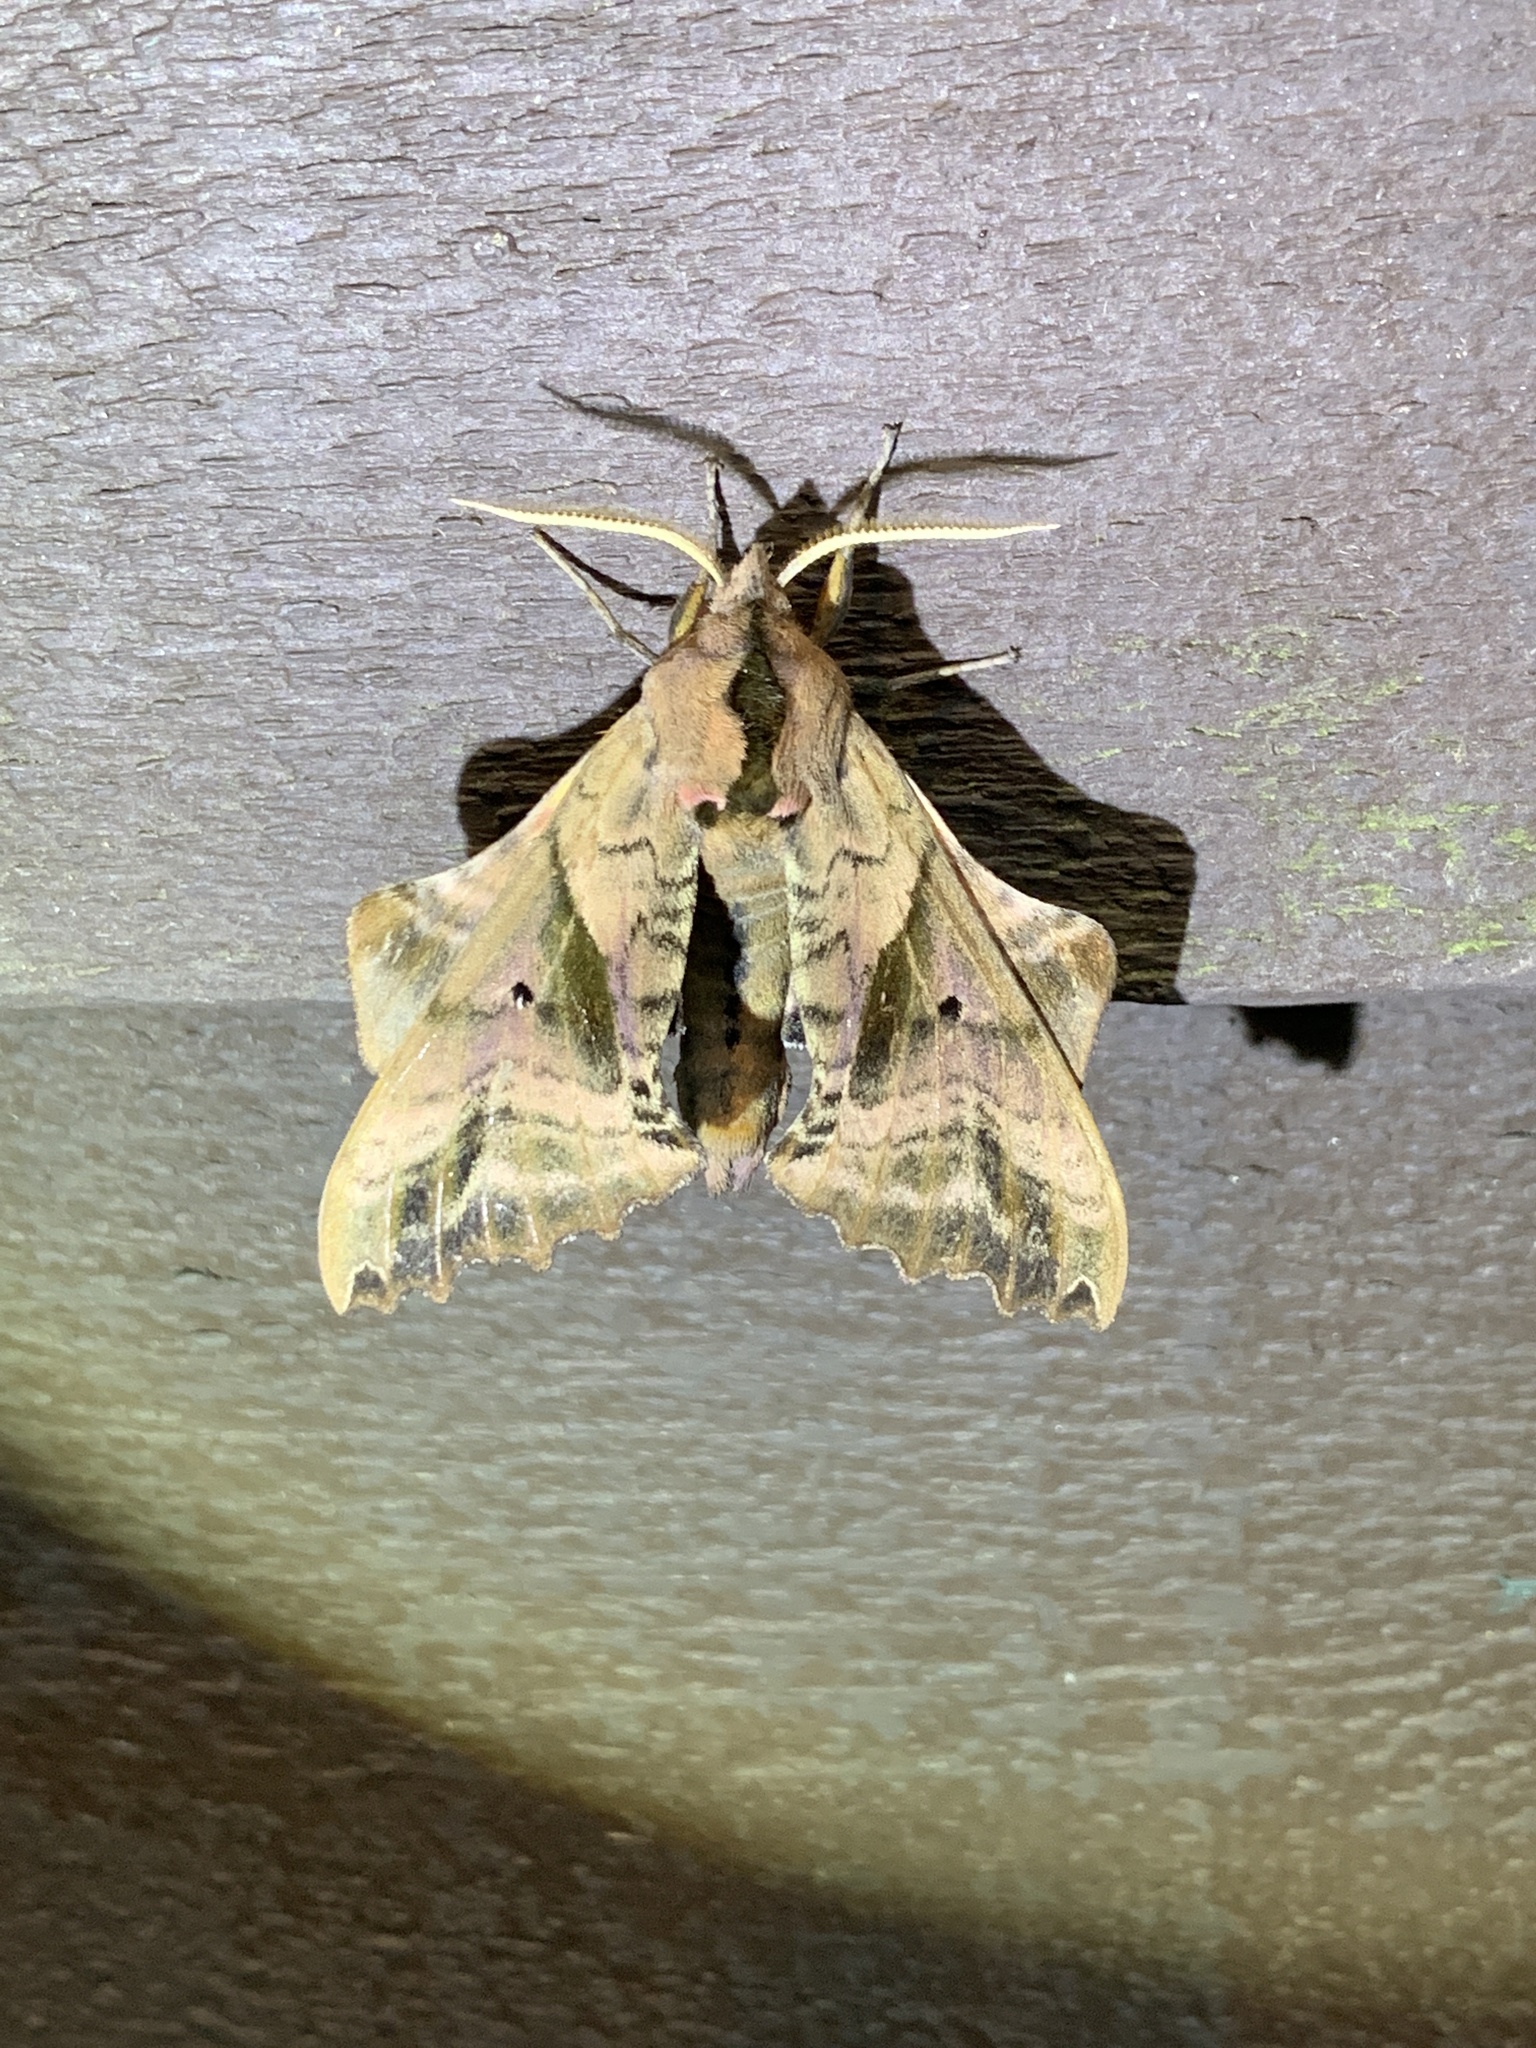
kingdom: Animalia
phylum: Arthropoda
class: Insecta
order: Lepidoptera
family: Sphingidae
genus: Paonias
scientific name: Paonias excaecata
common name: Blind-eyed sphinx
